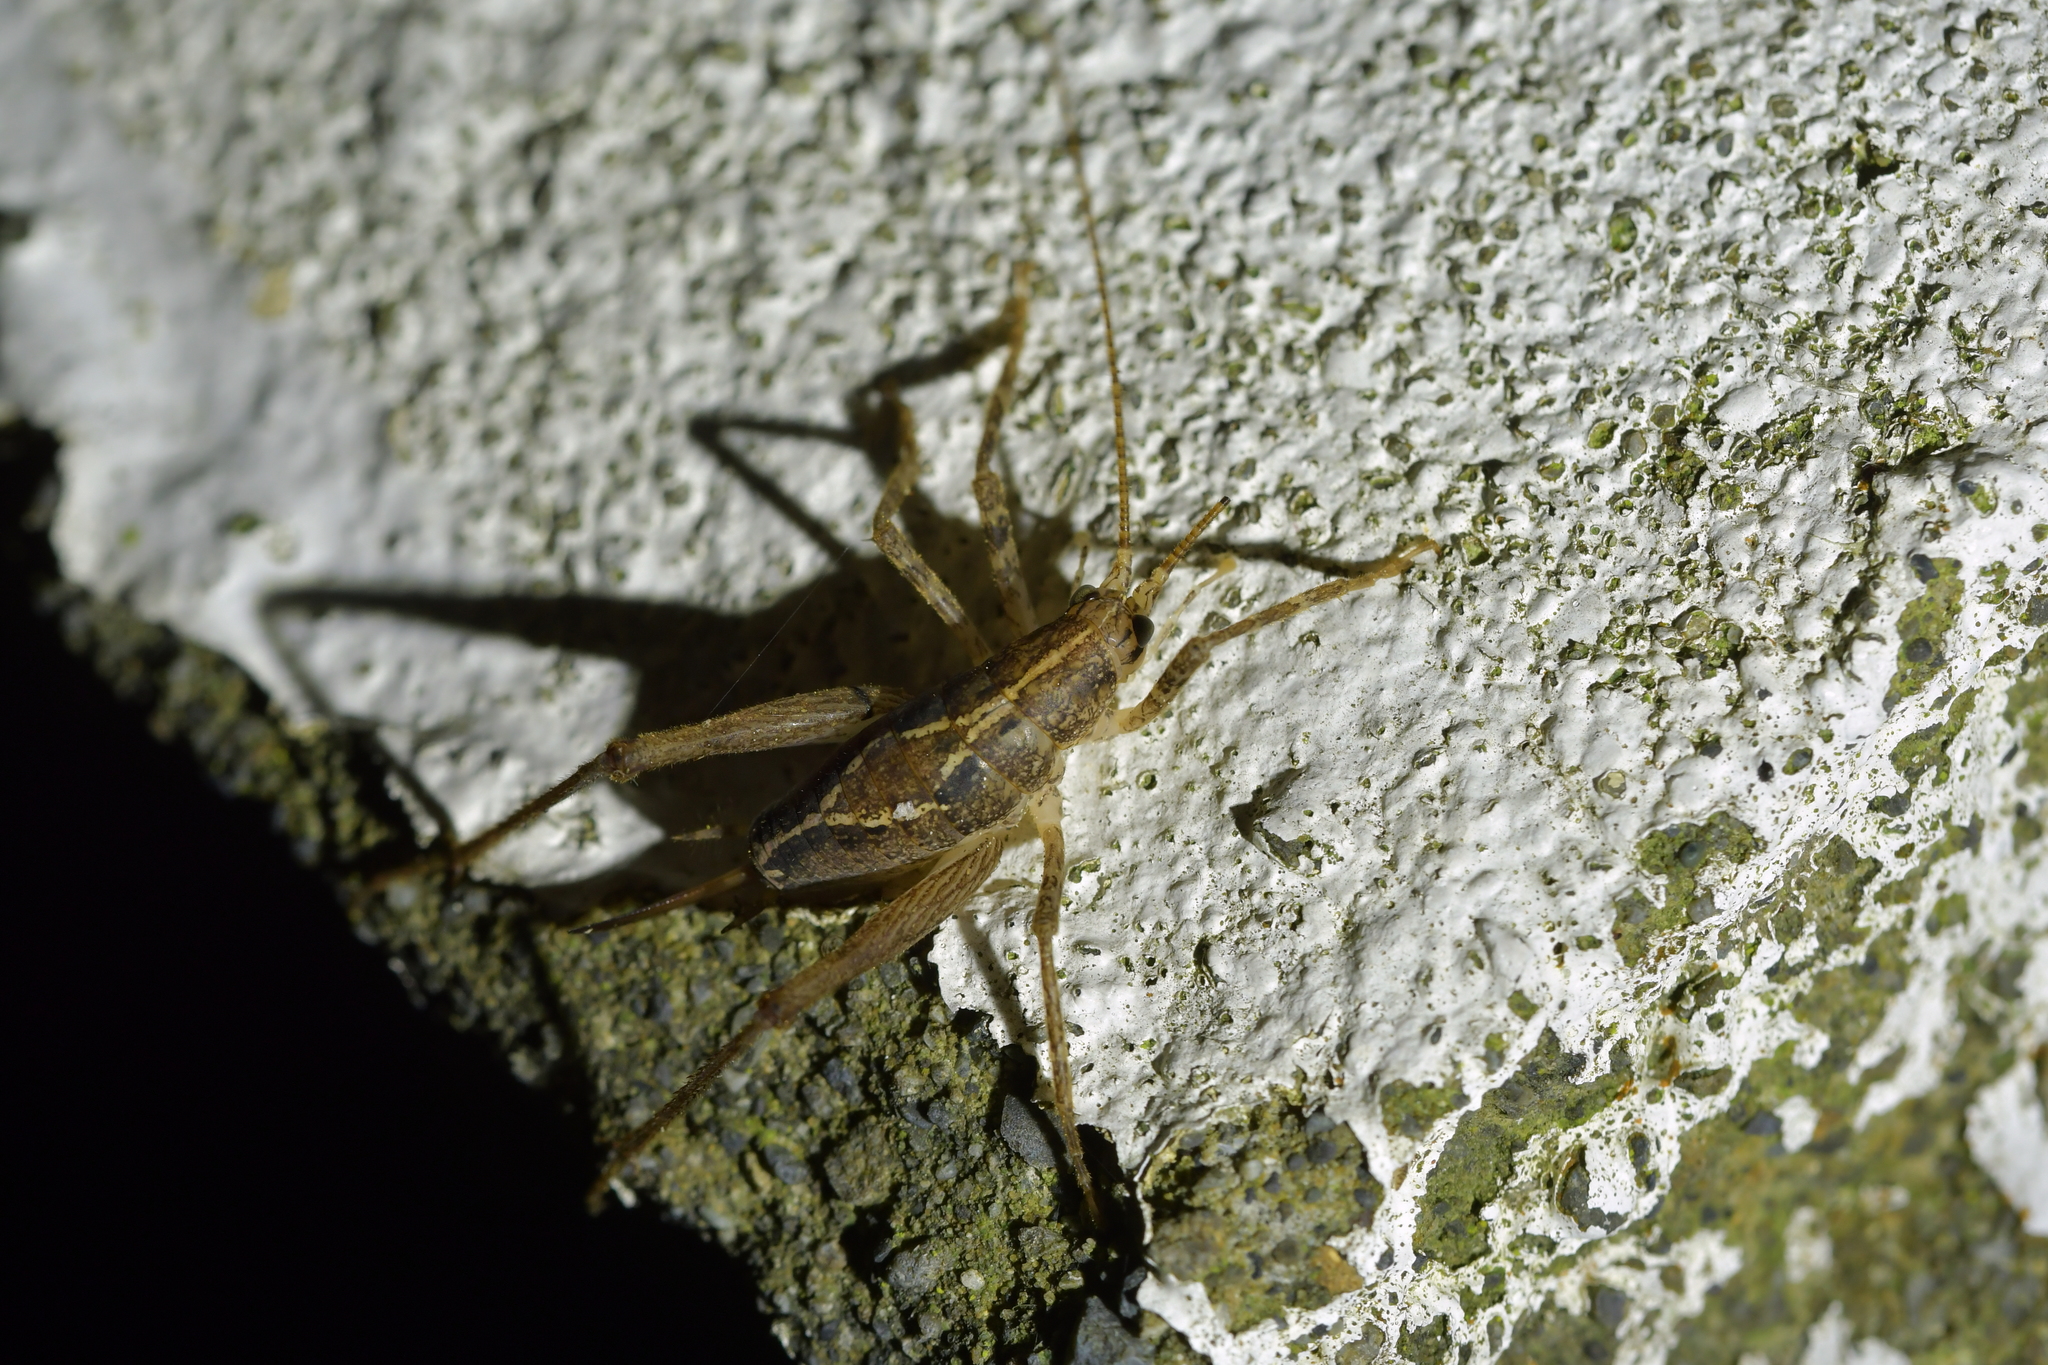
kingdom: Animalia
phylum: Arthropoda
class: Insecta
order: Orthoptera
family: Rhaphidophoridae
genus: Isoplectron
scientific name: Isoplectron armatum
